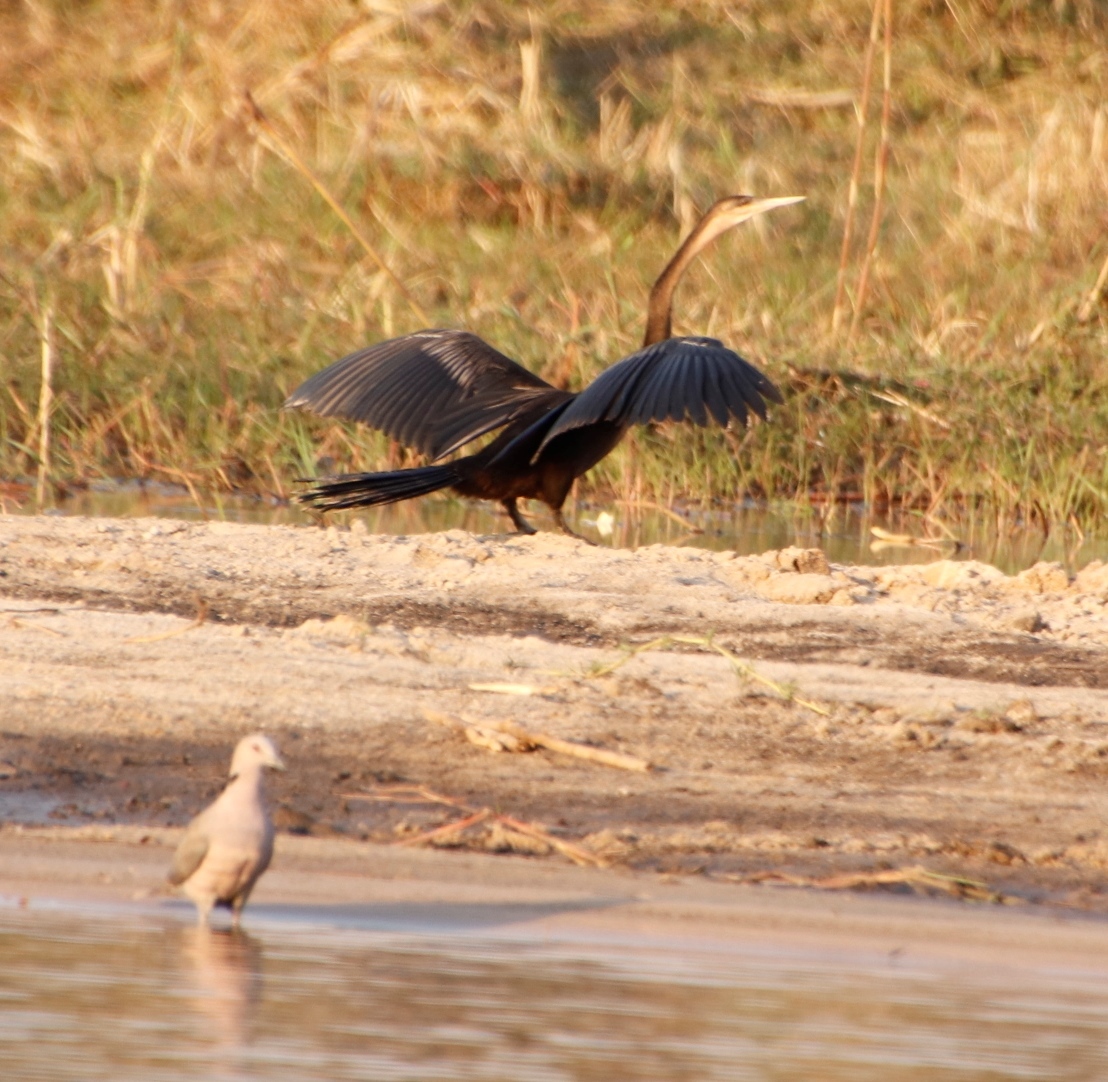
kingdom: Animalia
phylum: Chordata
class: Aves
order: Suliformes
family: Anhingidae
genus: Anhinga
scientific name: Anhinga rufa
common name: African darter
